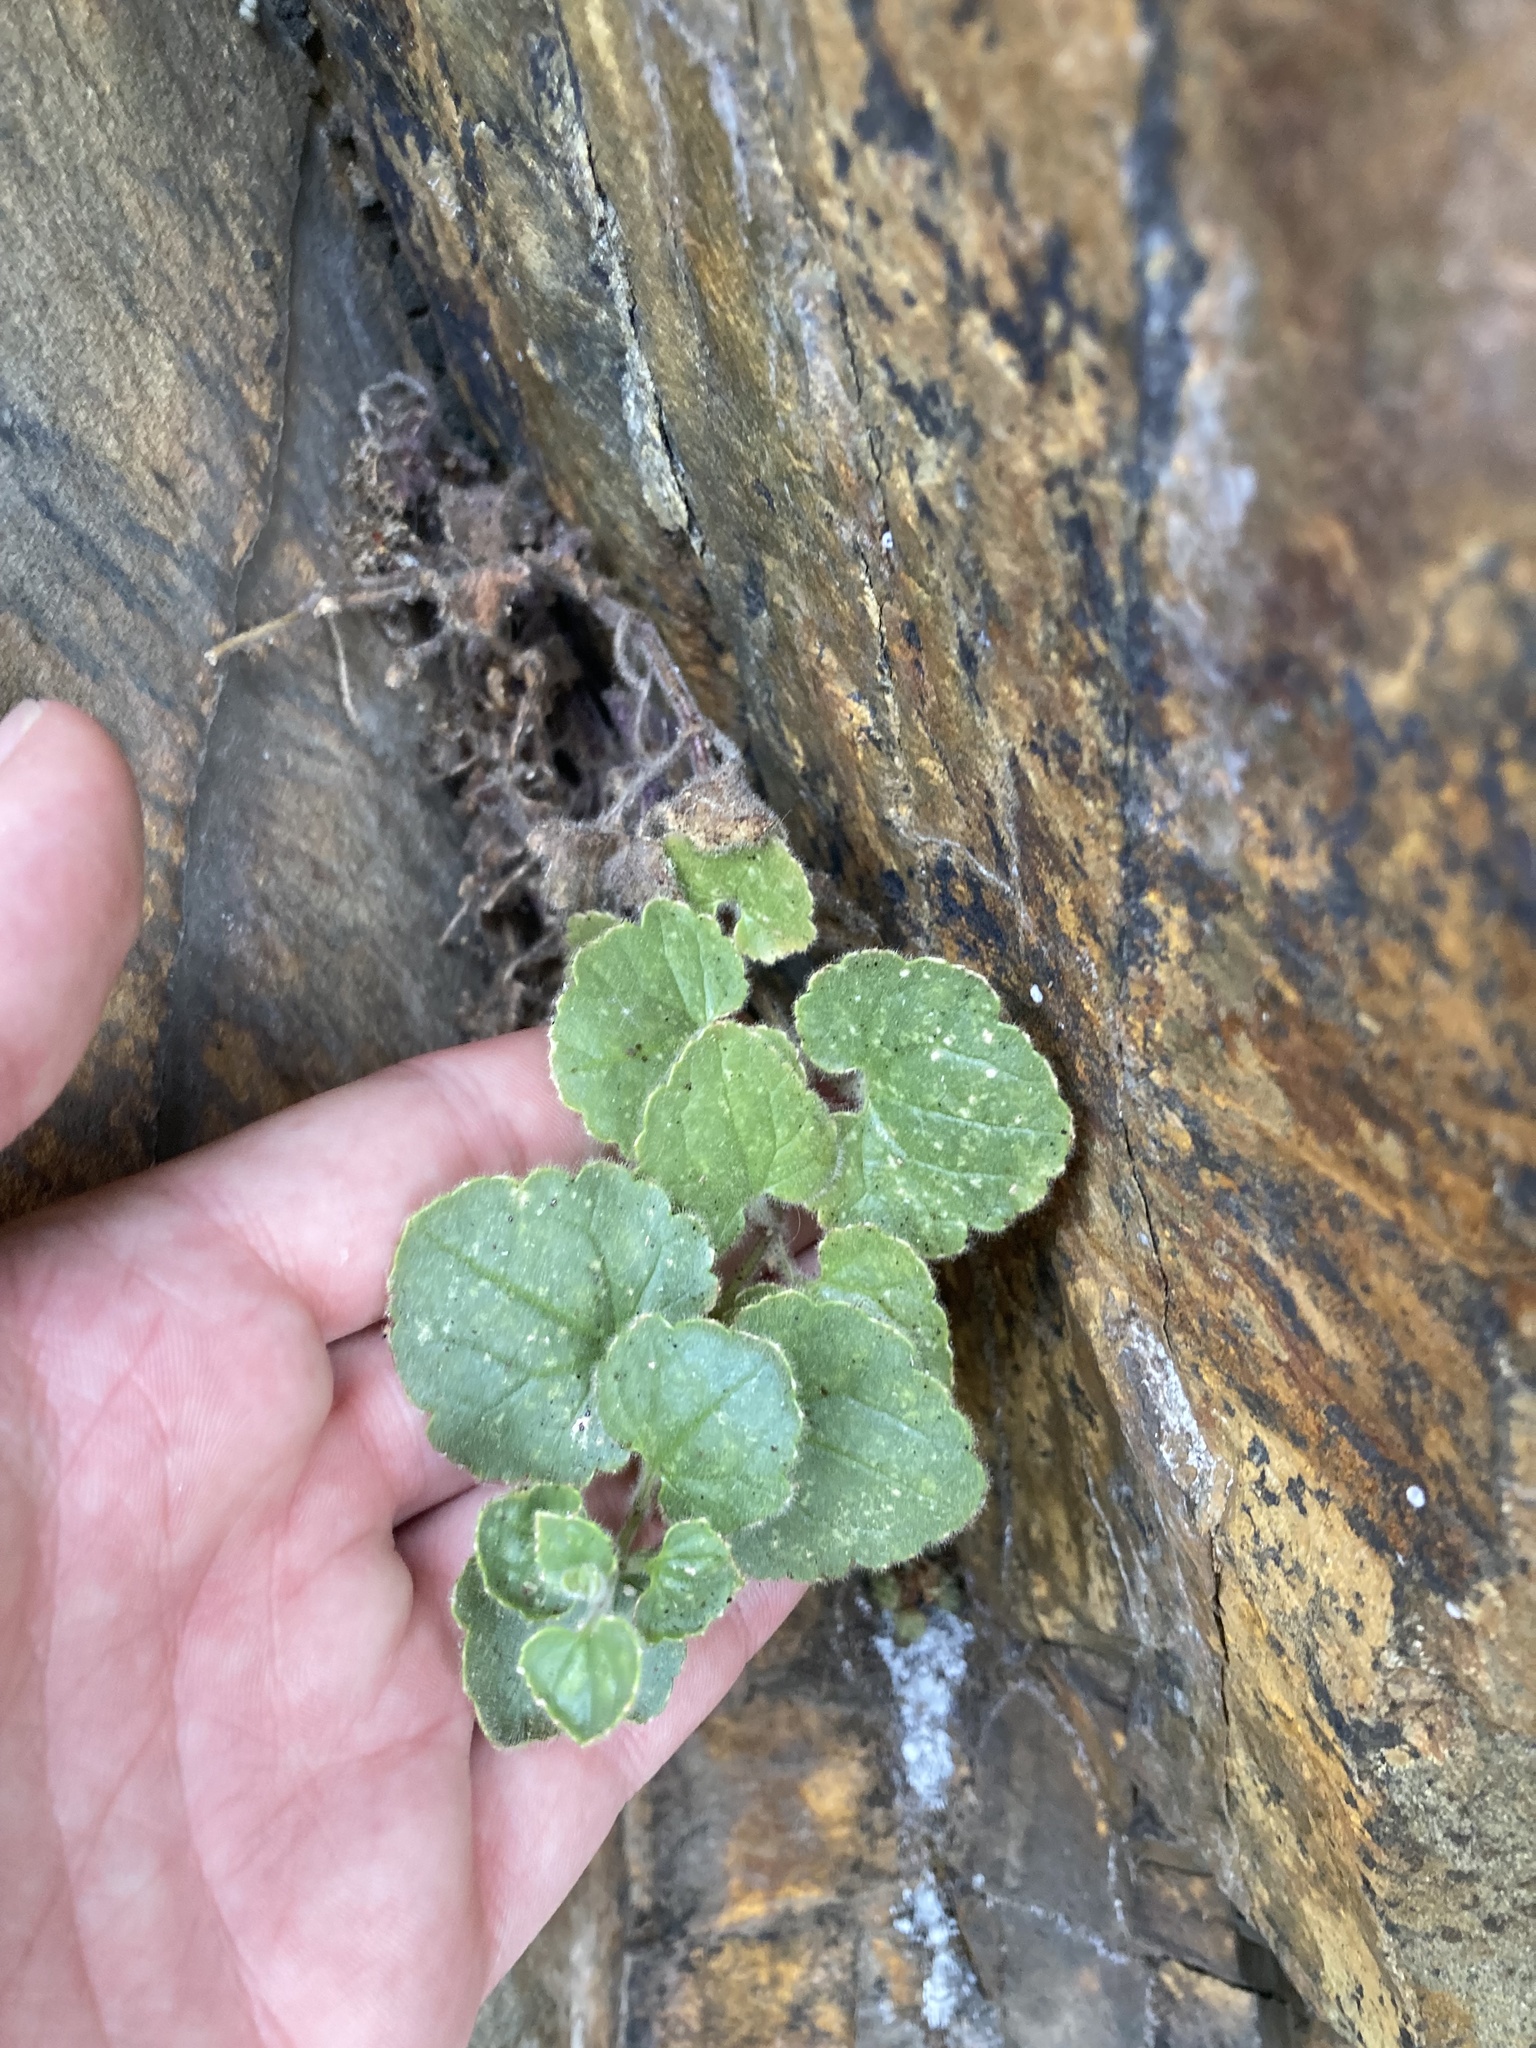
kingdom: Plantae
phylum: Tracheophyta
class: Magnoliopsida
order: Lamiales
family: Plantaginaceae
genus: Asarina
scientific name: Asarina procumbens
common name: Trailing snapdragon
